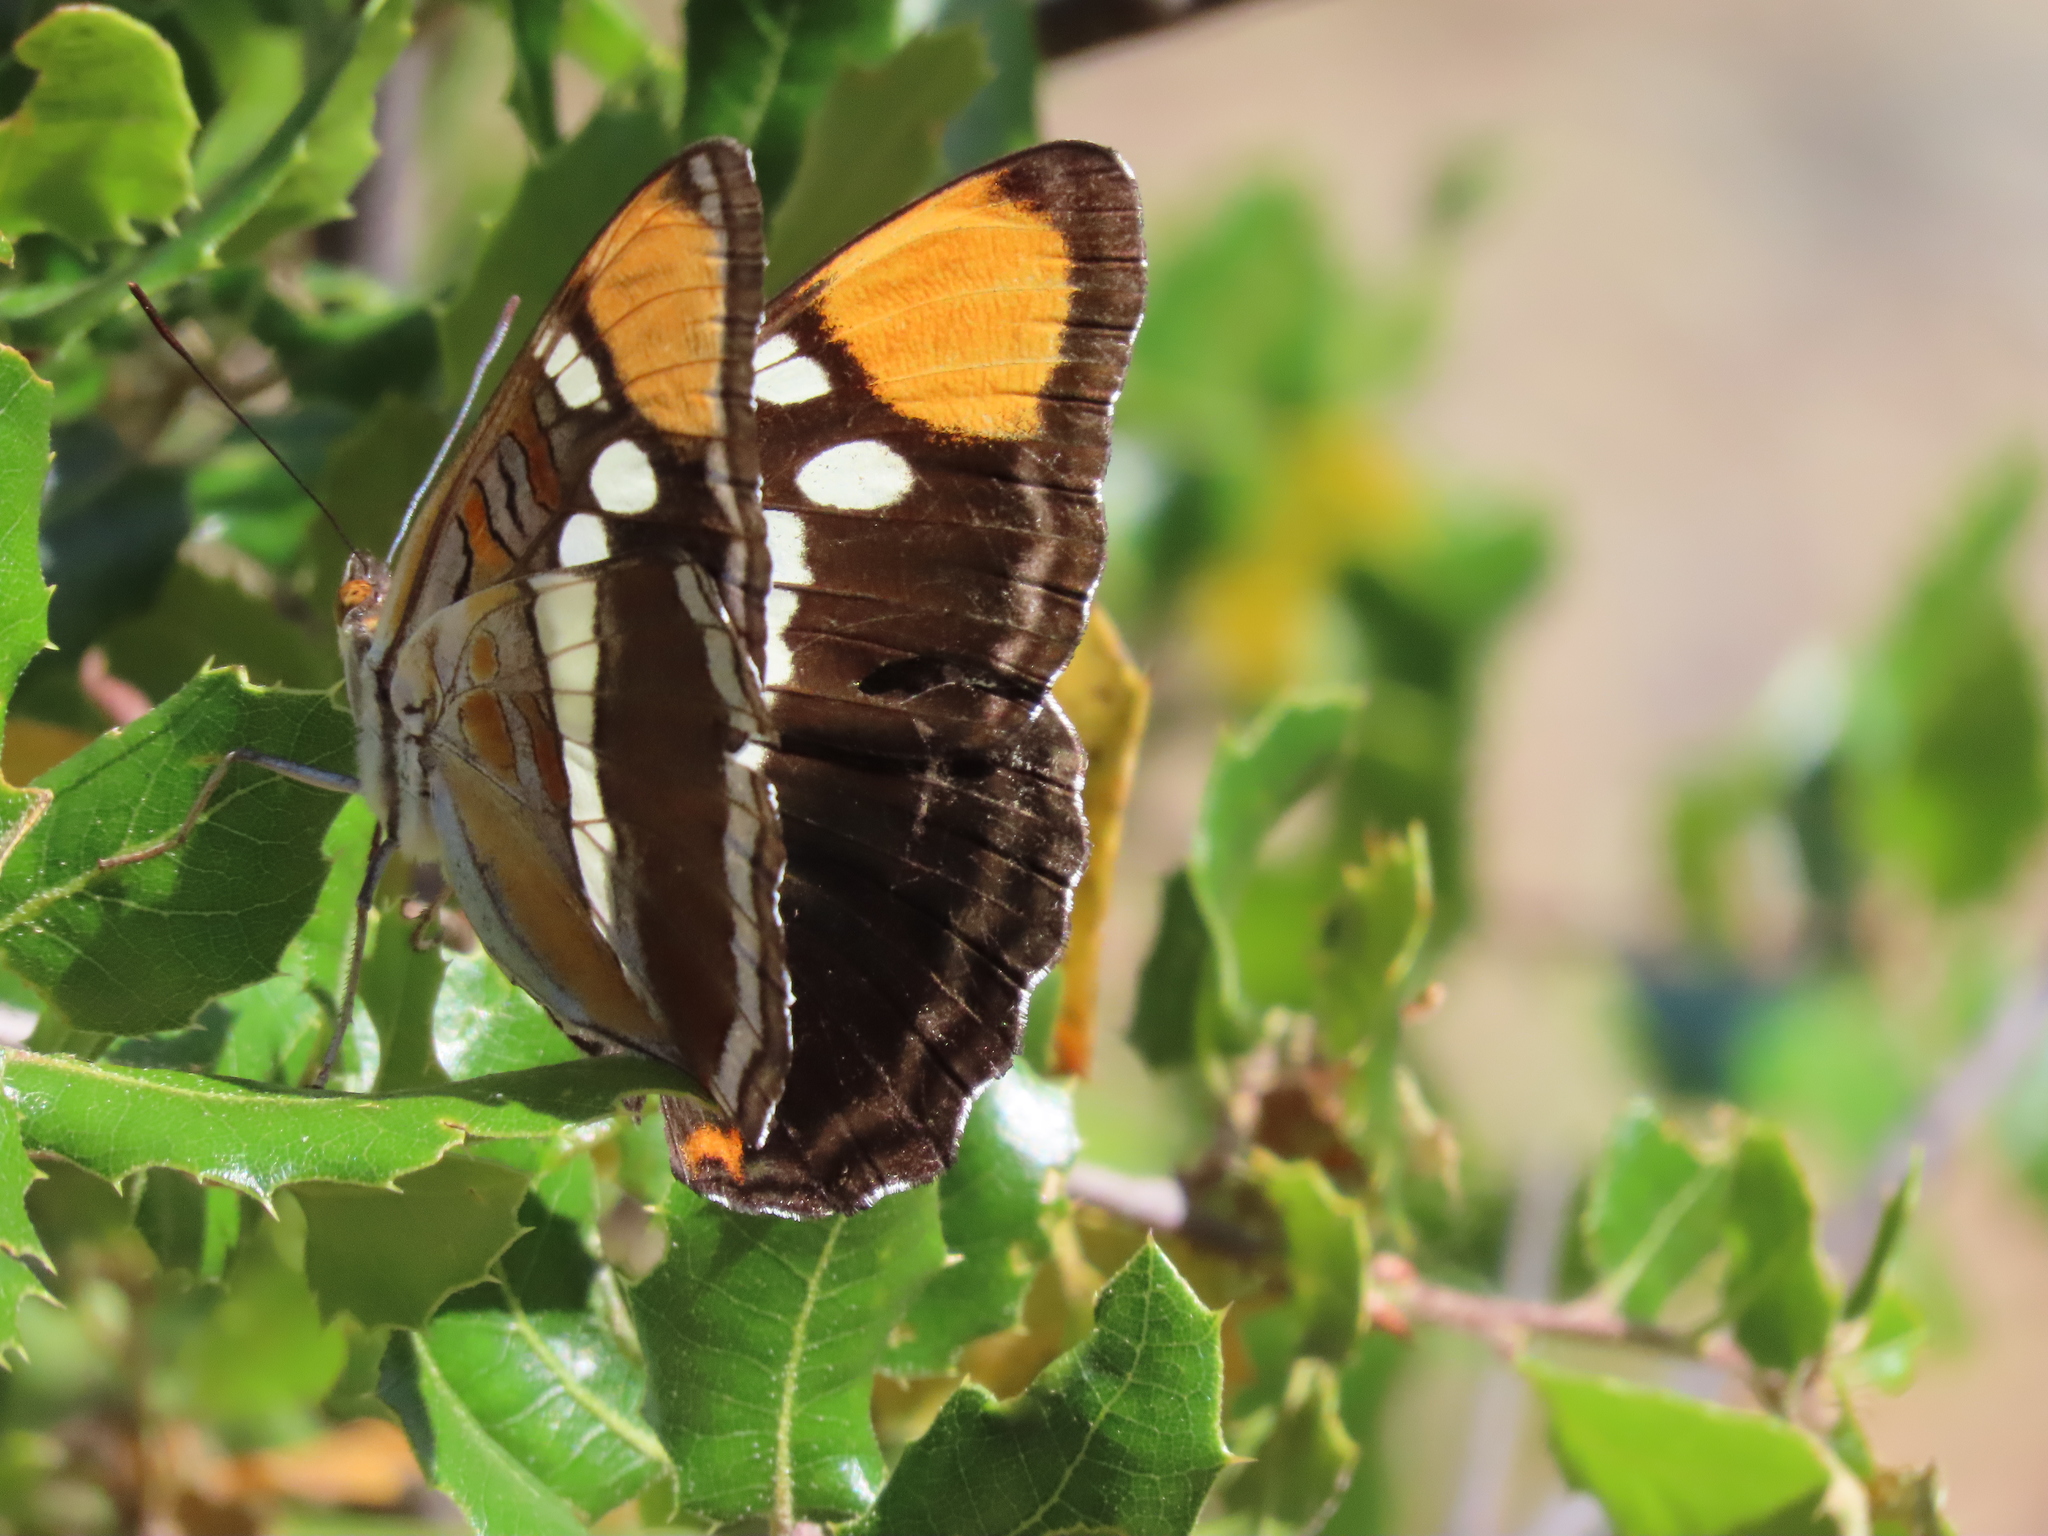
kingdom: Animalia
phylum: Arthropoda
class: Insecta
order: Lepidoptera
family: Nymphalidae
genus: Limenitis
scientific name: Limenitis bredowii
